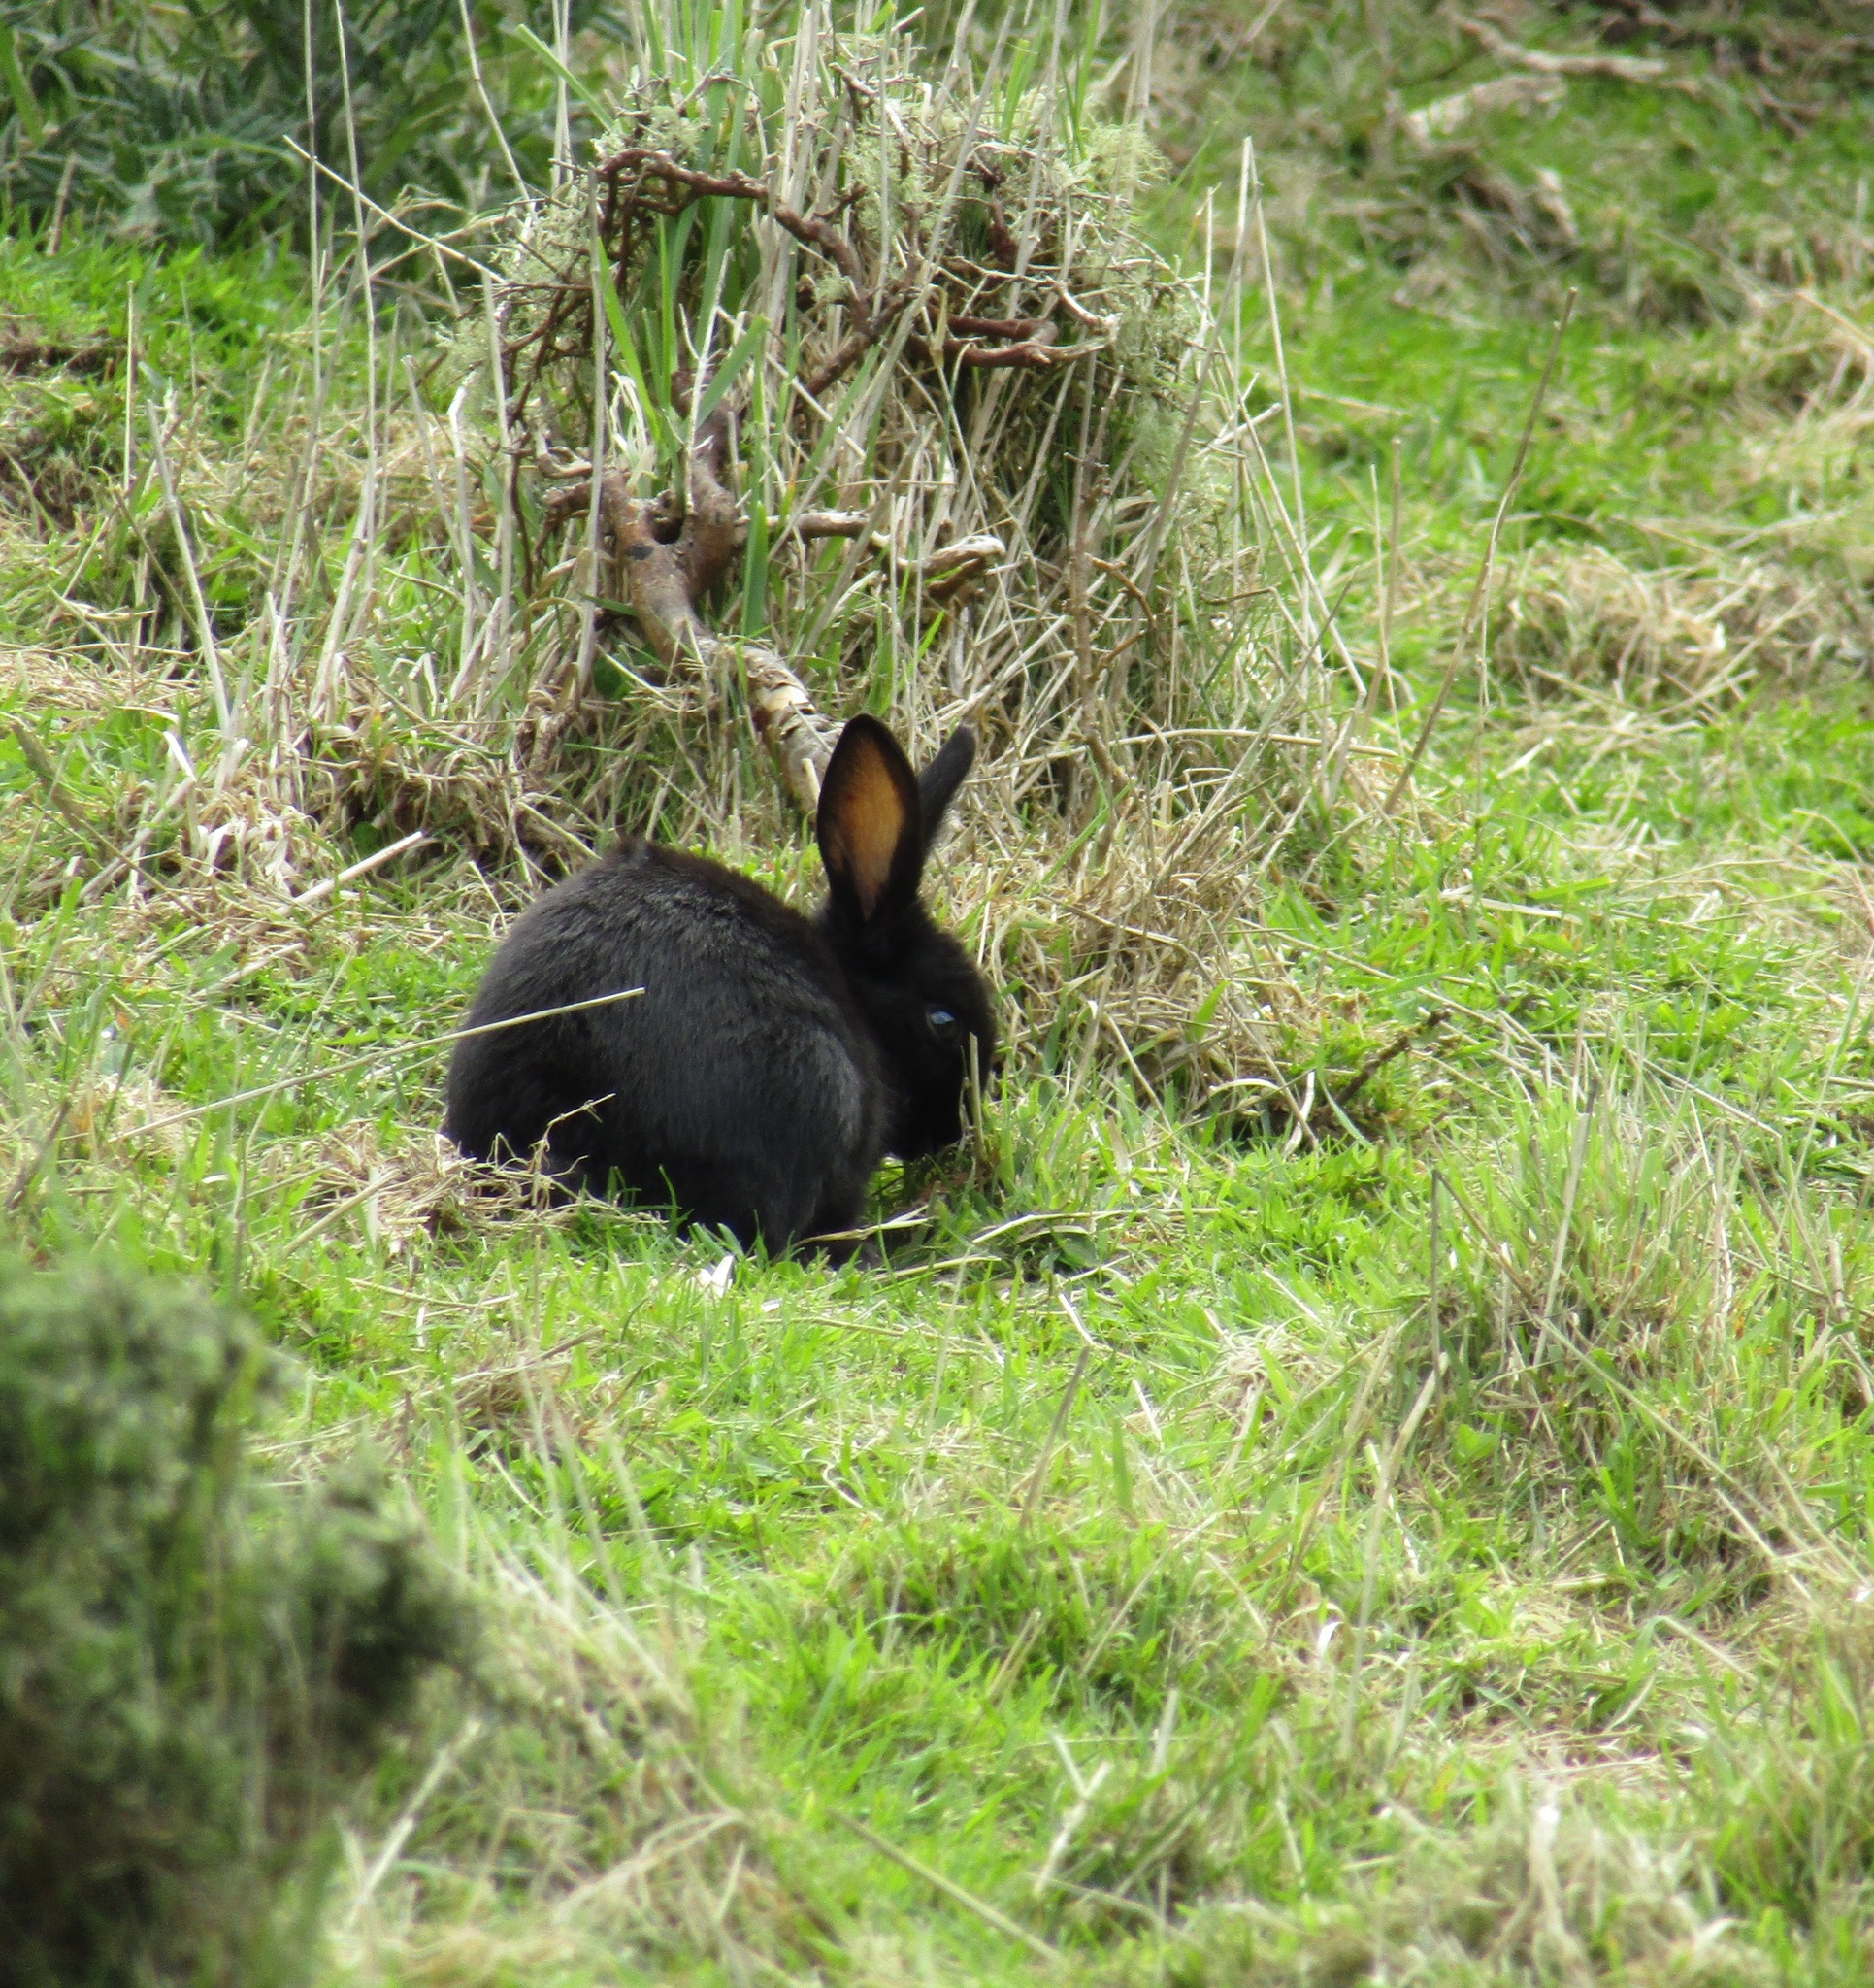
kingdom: Animalia
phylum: Chordata
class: Mammalia
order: Lagomorpha
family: Leporidae
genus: Oryctolagus
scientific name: Oryctolagus cuniculus
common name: European rabbit
